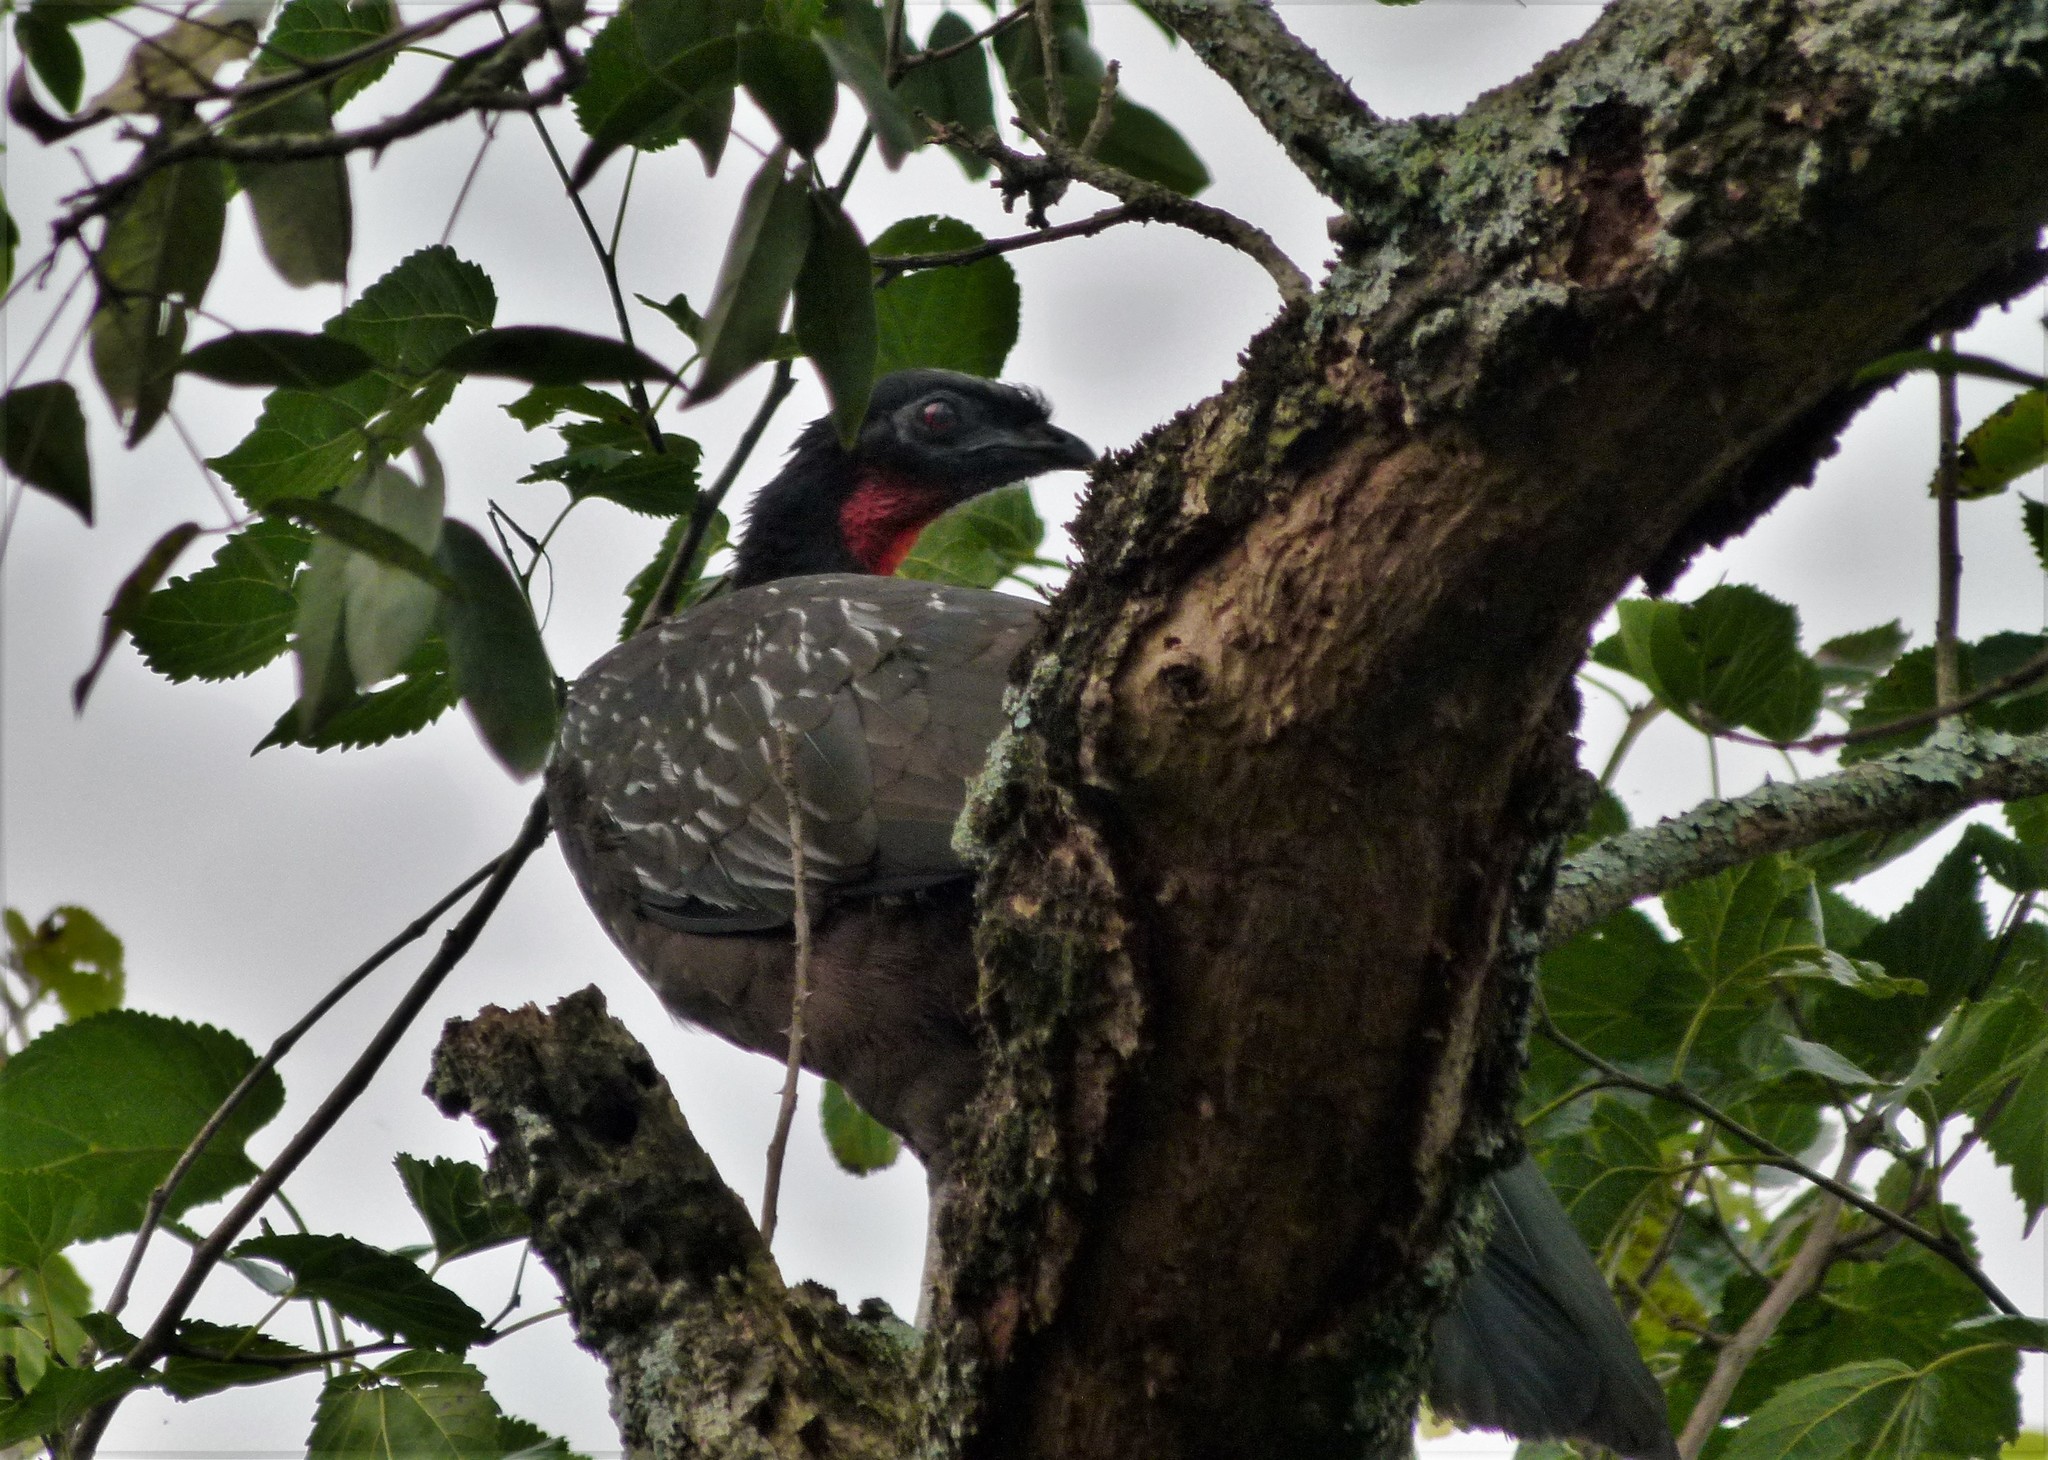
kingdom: Animalia
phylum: Chordata
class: Aves
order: Galliformes
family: Cracidae
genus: Penelope
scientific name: Penelope bridgesi
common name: Yungas guan
